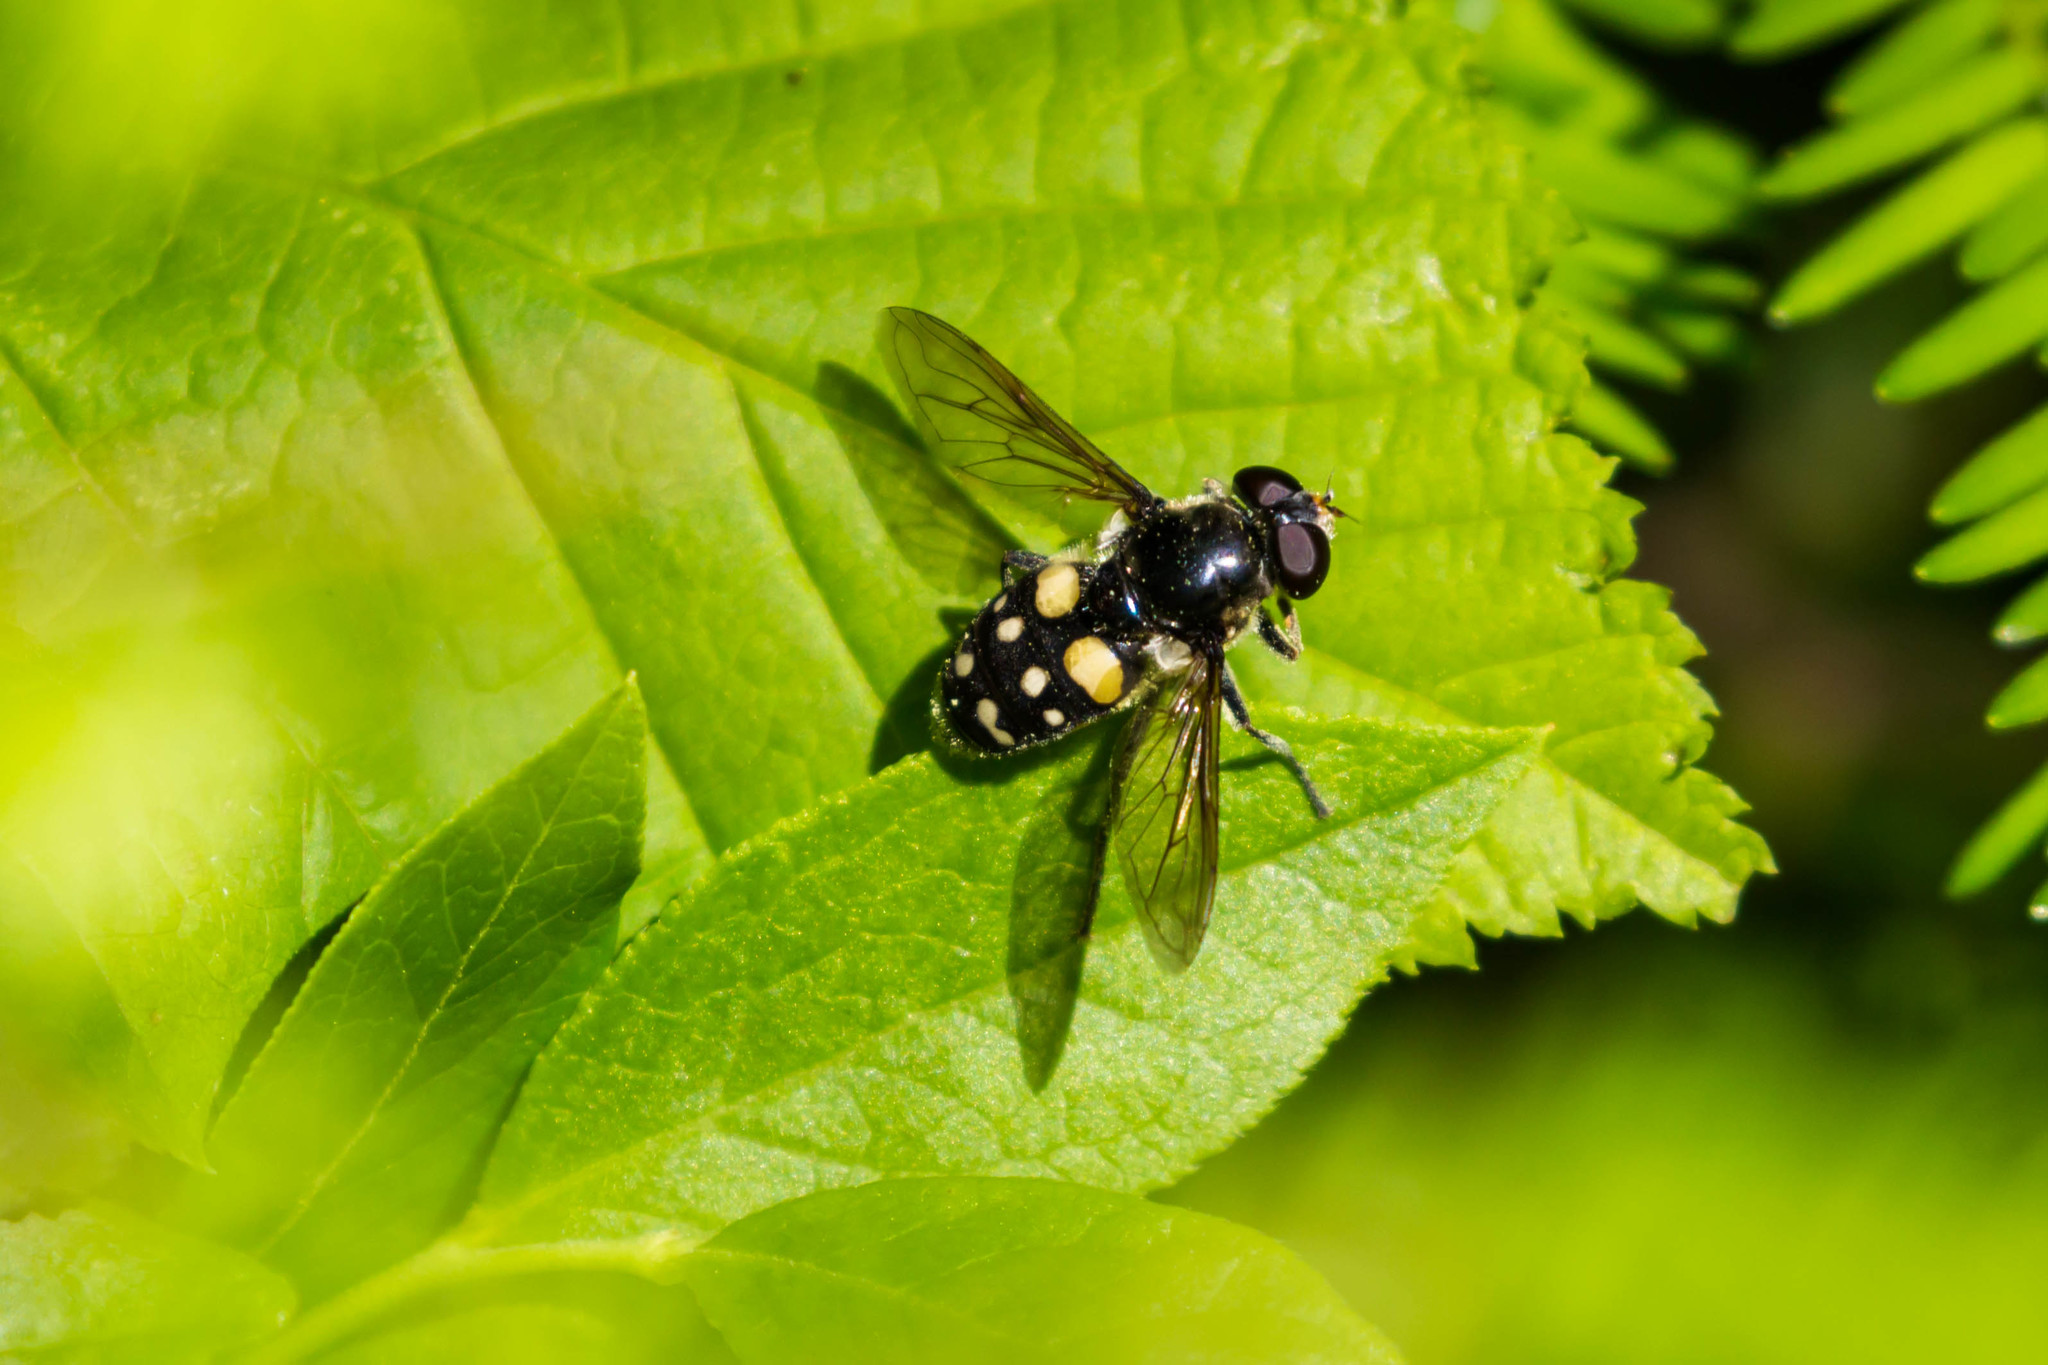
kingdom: Animalia
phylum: Arthropoda
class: Insecta
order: Diptera
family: Syrphidae
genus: Sericomyia
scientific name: Sericomyia lata
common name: White-spotted pond fly
